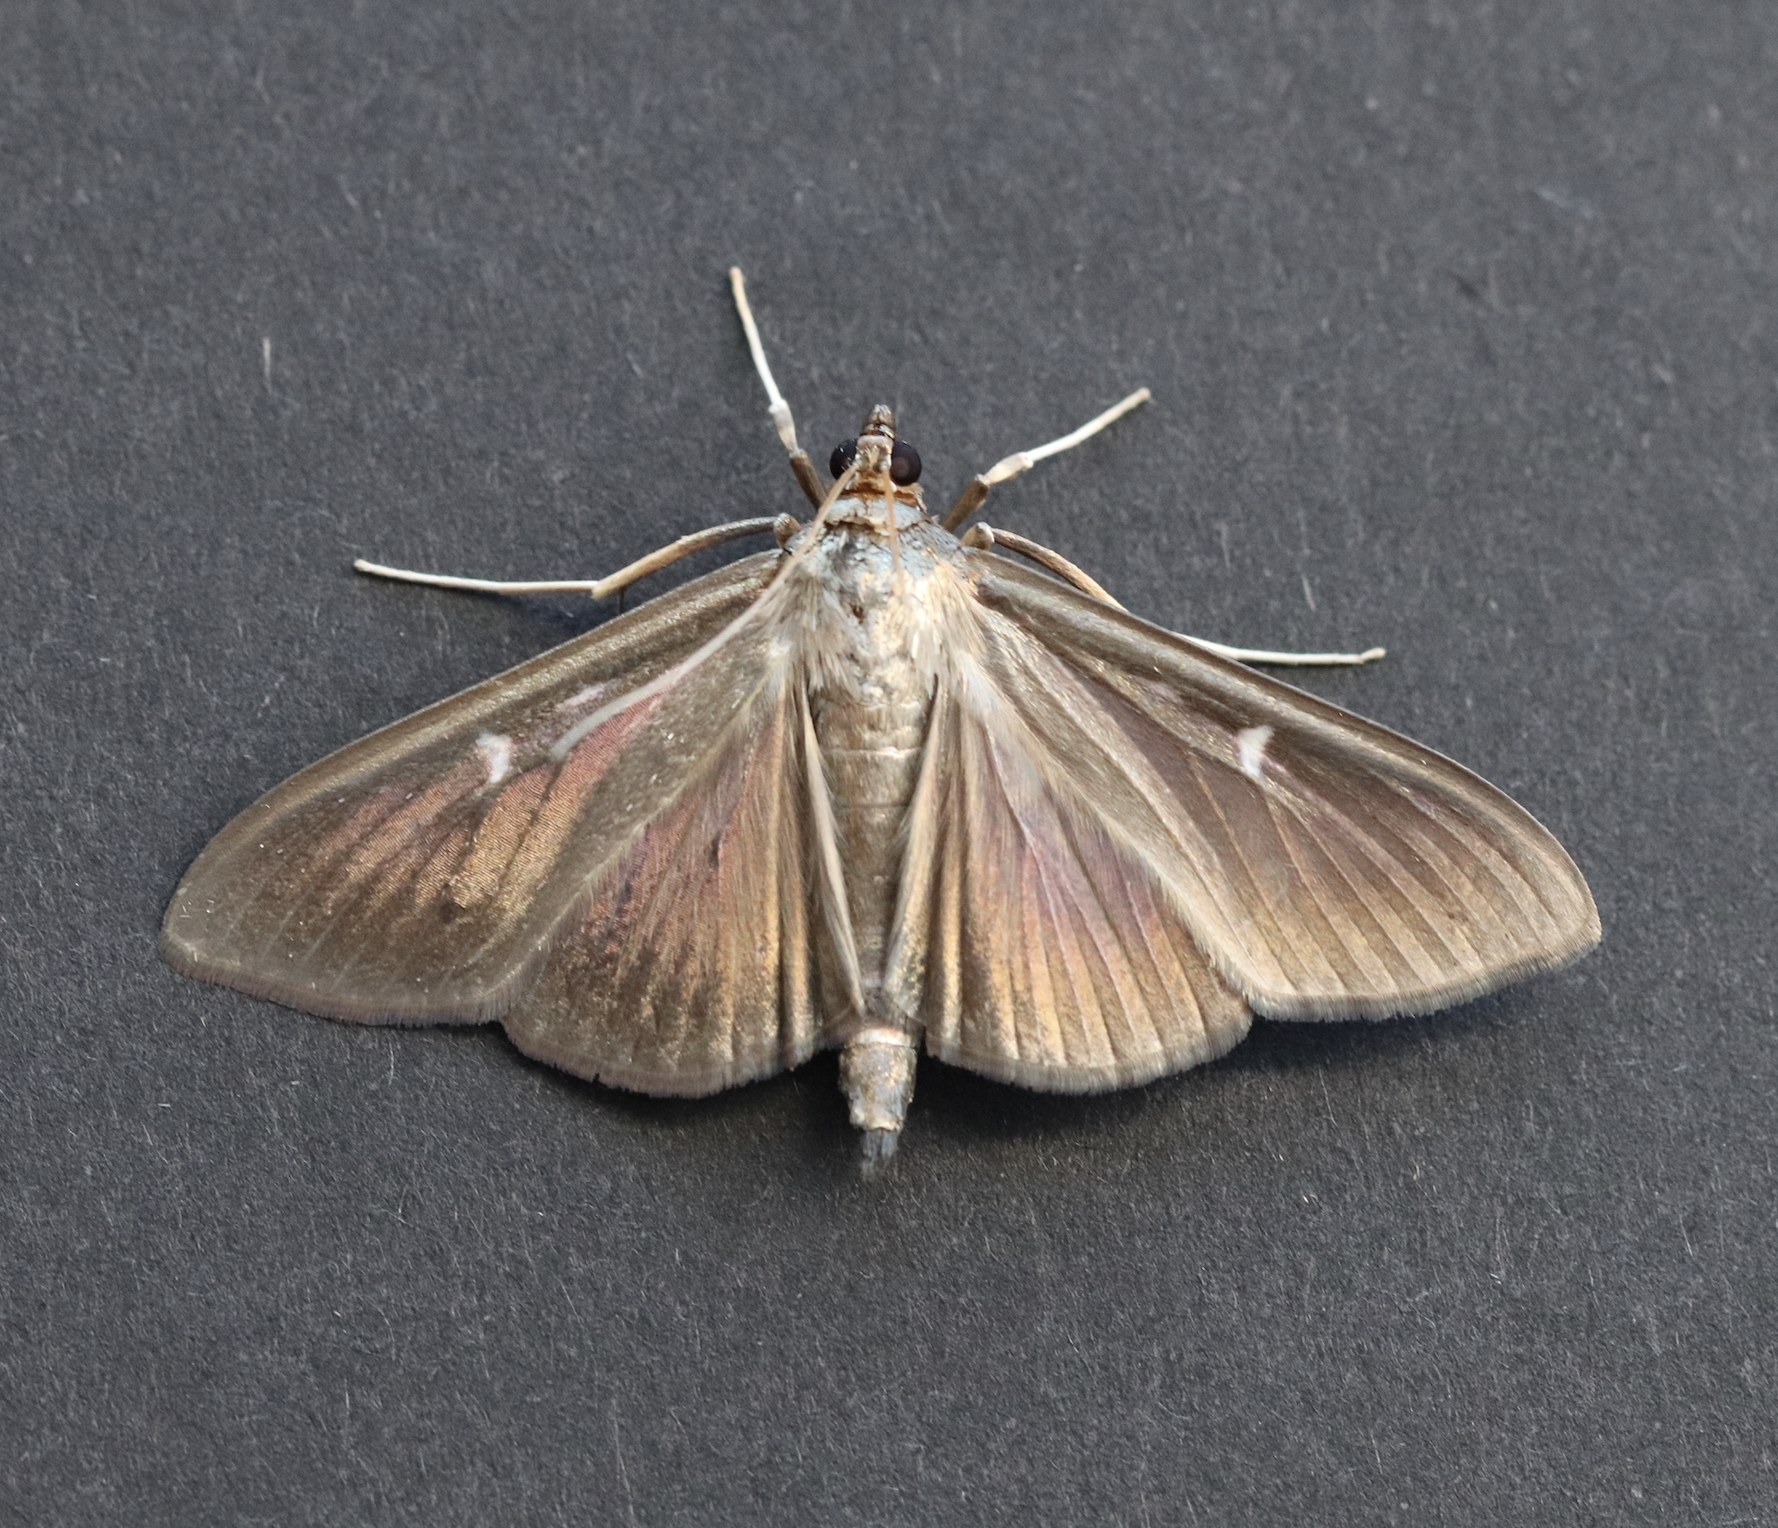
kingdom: Animalia
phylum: Arthropoda
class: Insecta
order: Lepidoptera
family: Crambidae
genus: Cydalima
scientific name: Cydalima perspectalis
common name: Box tree moth
